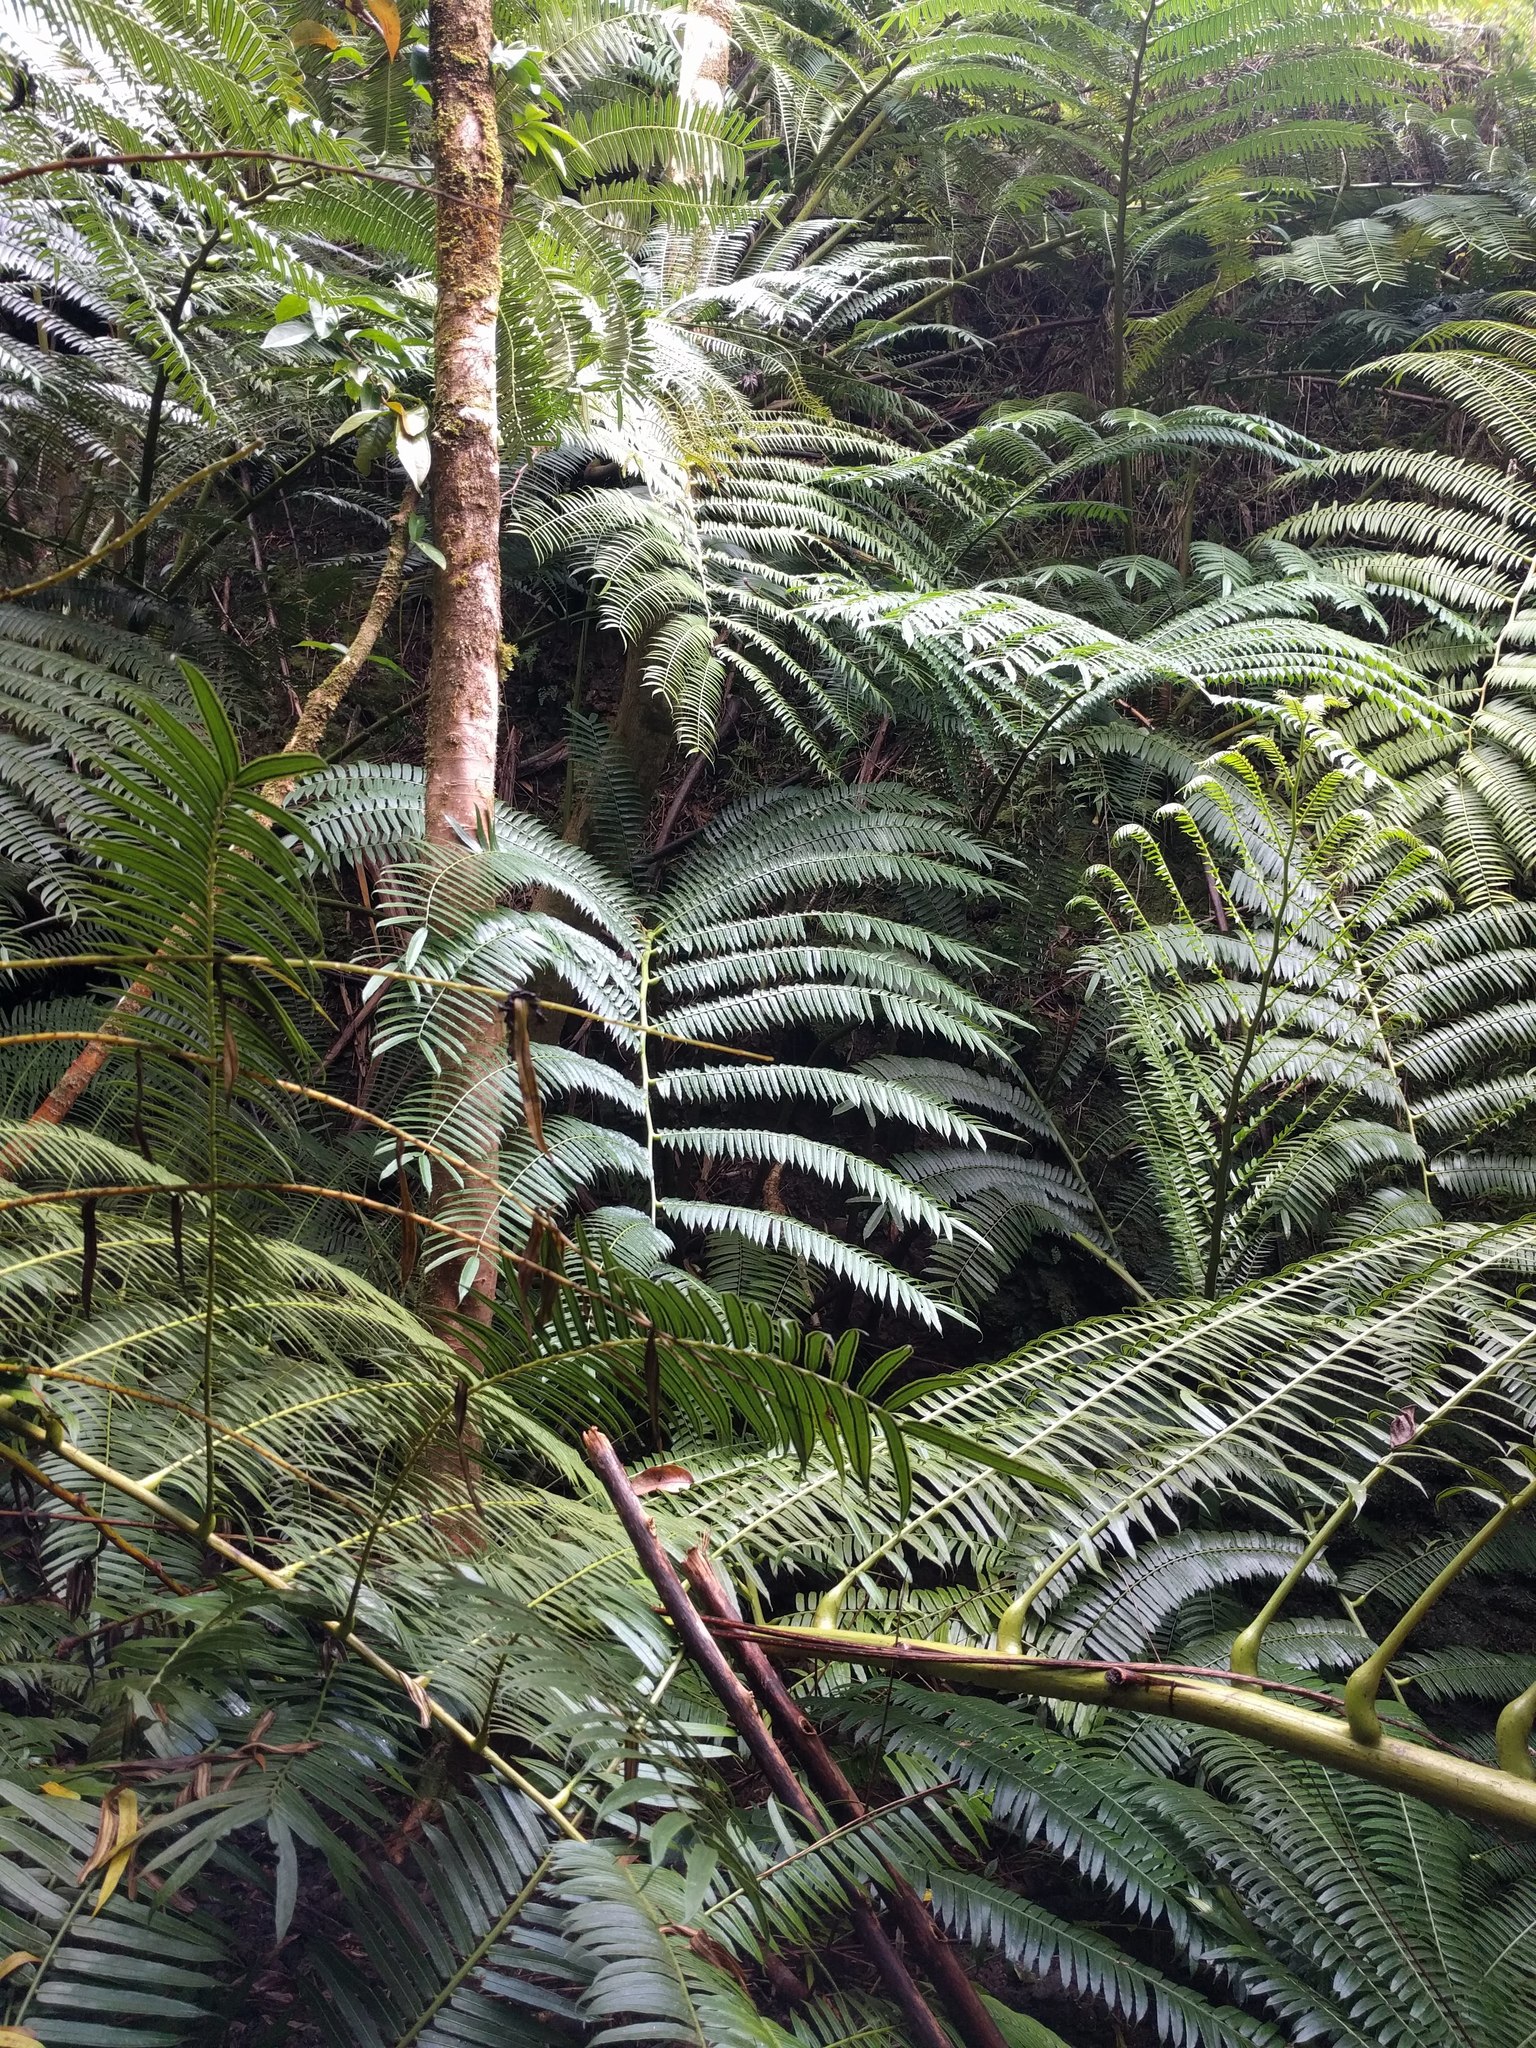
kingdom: Plantae
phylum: Tracheophyta
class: Polypodiopsida
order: Marattiales
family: Marattiaceae
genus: Angiopteris
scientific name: Angiopteris evecta
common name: Mule's-foot fern
